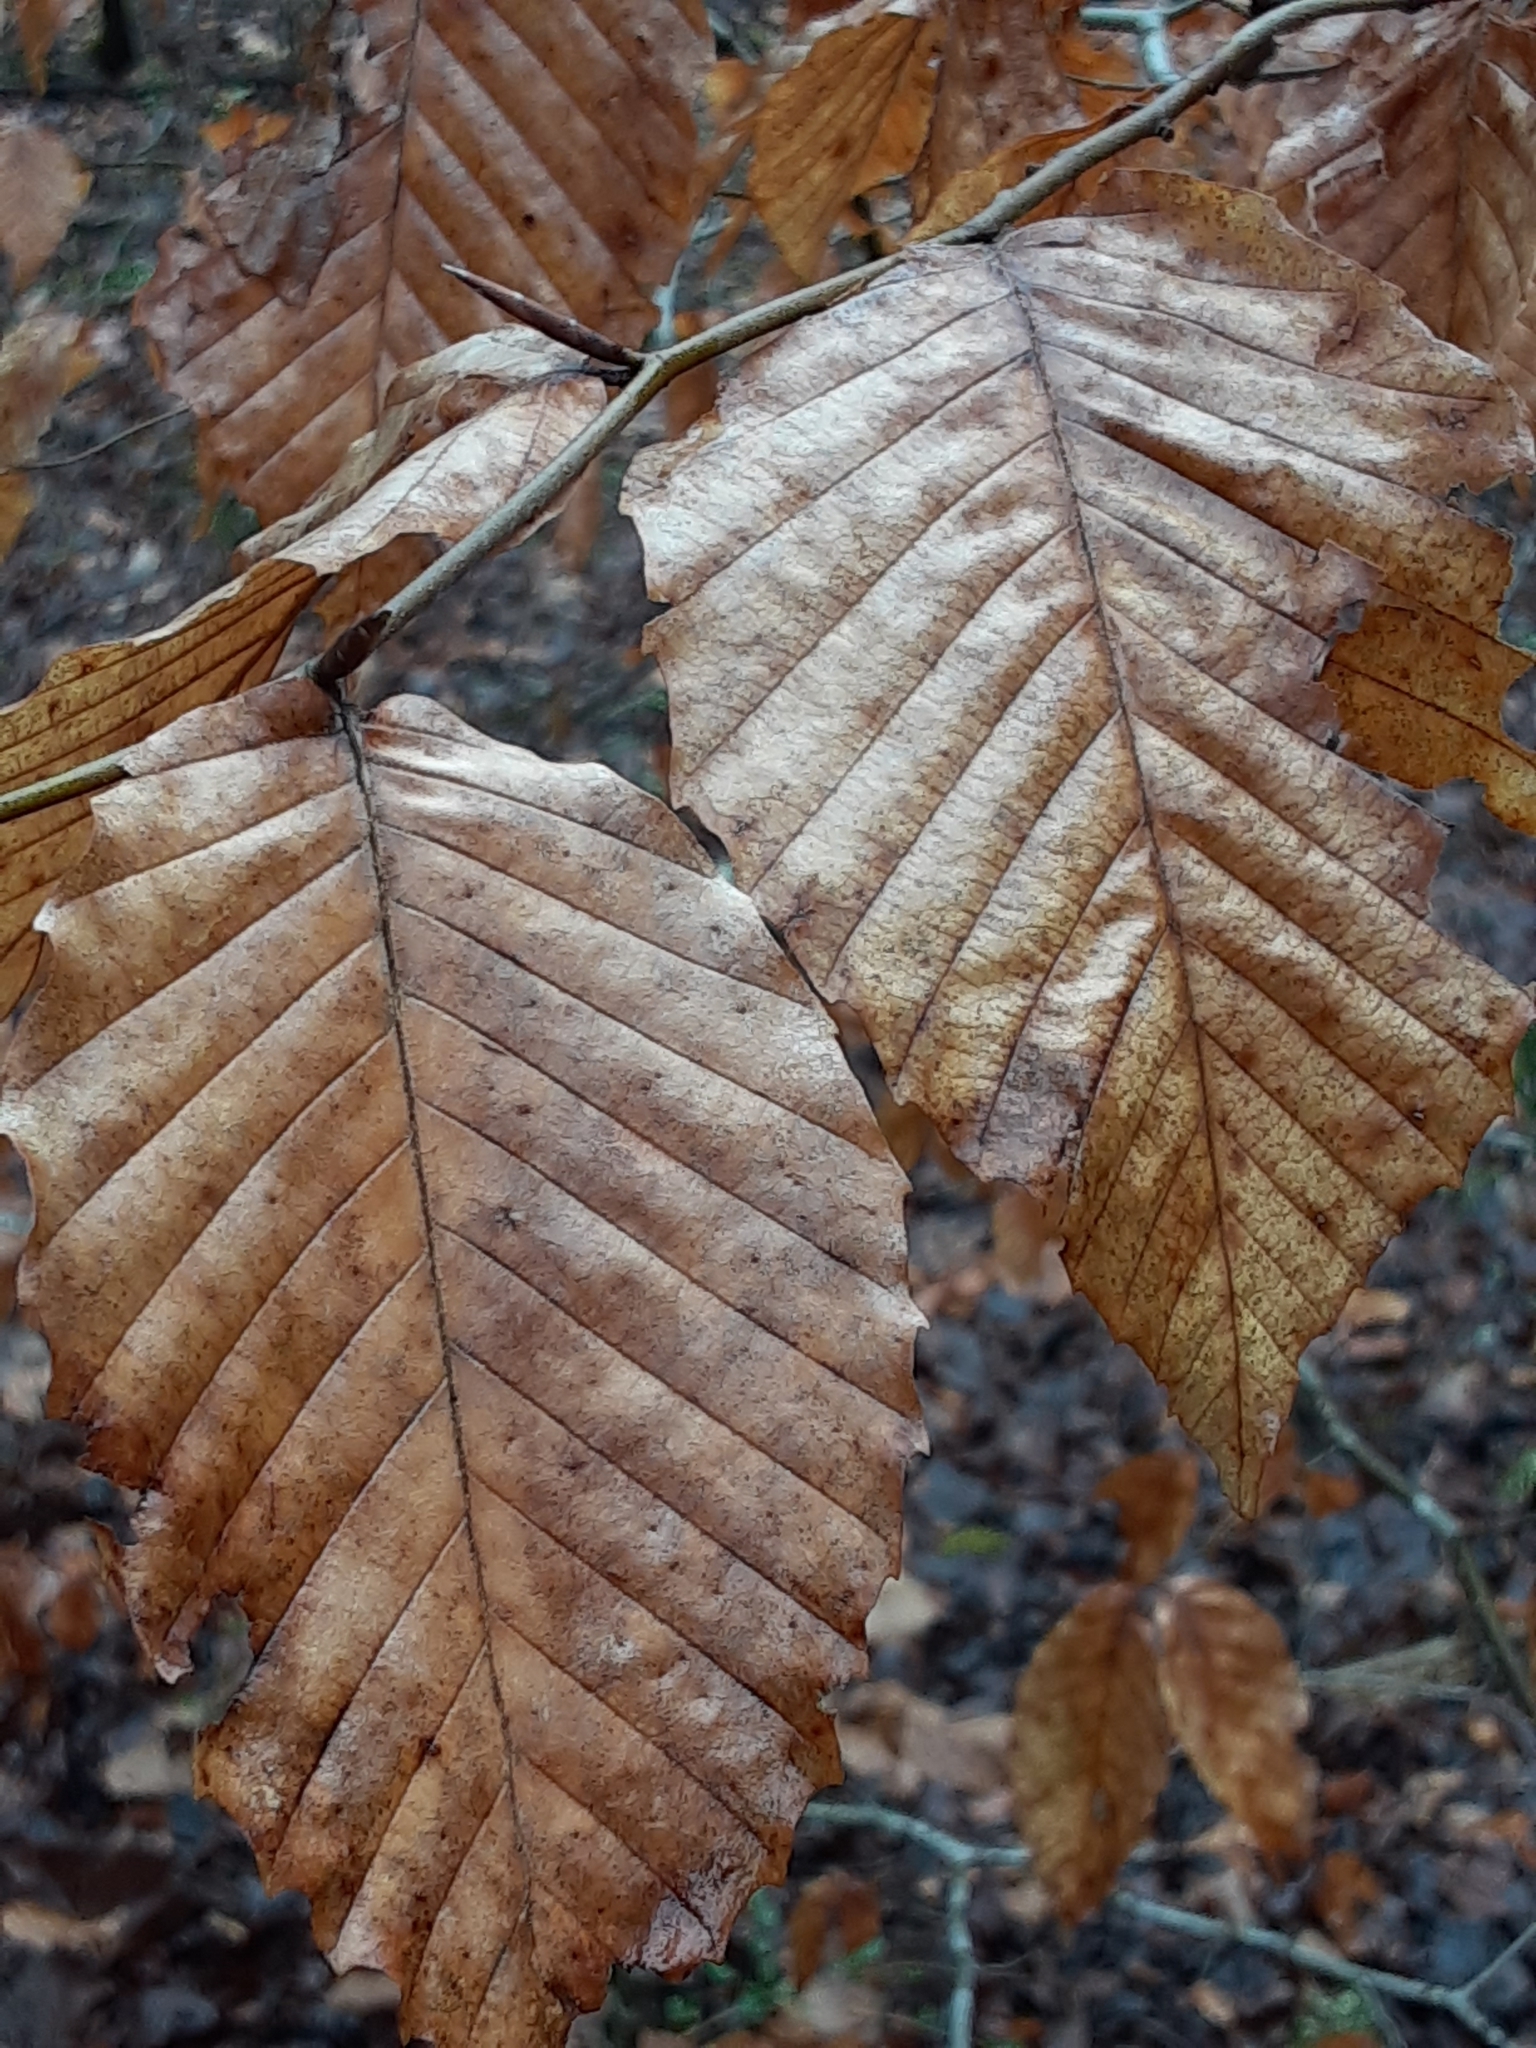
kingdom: Plantae
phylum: Tracheophyta
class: Magnoliopsida
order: Fagales
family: Fagaceae
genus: Fagus
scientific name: Fagus grandifolia
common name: American beech
